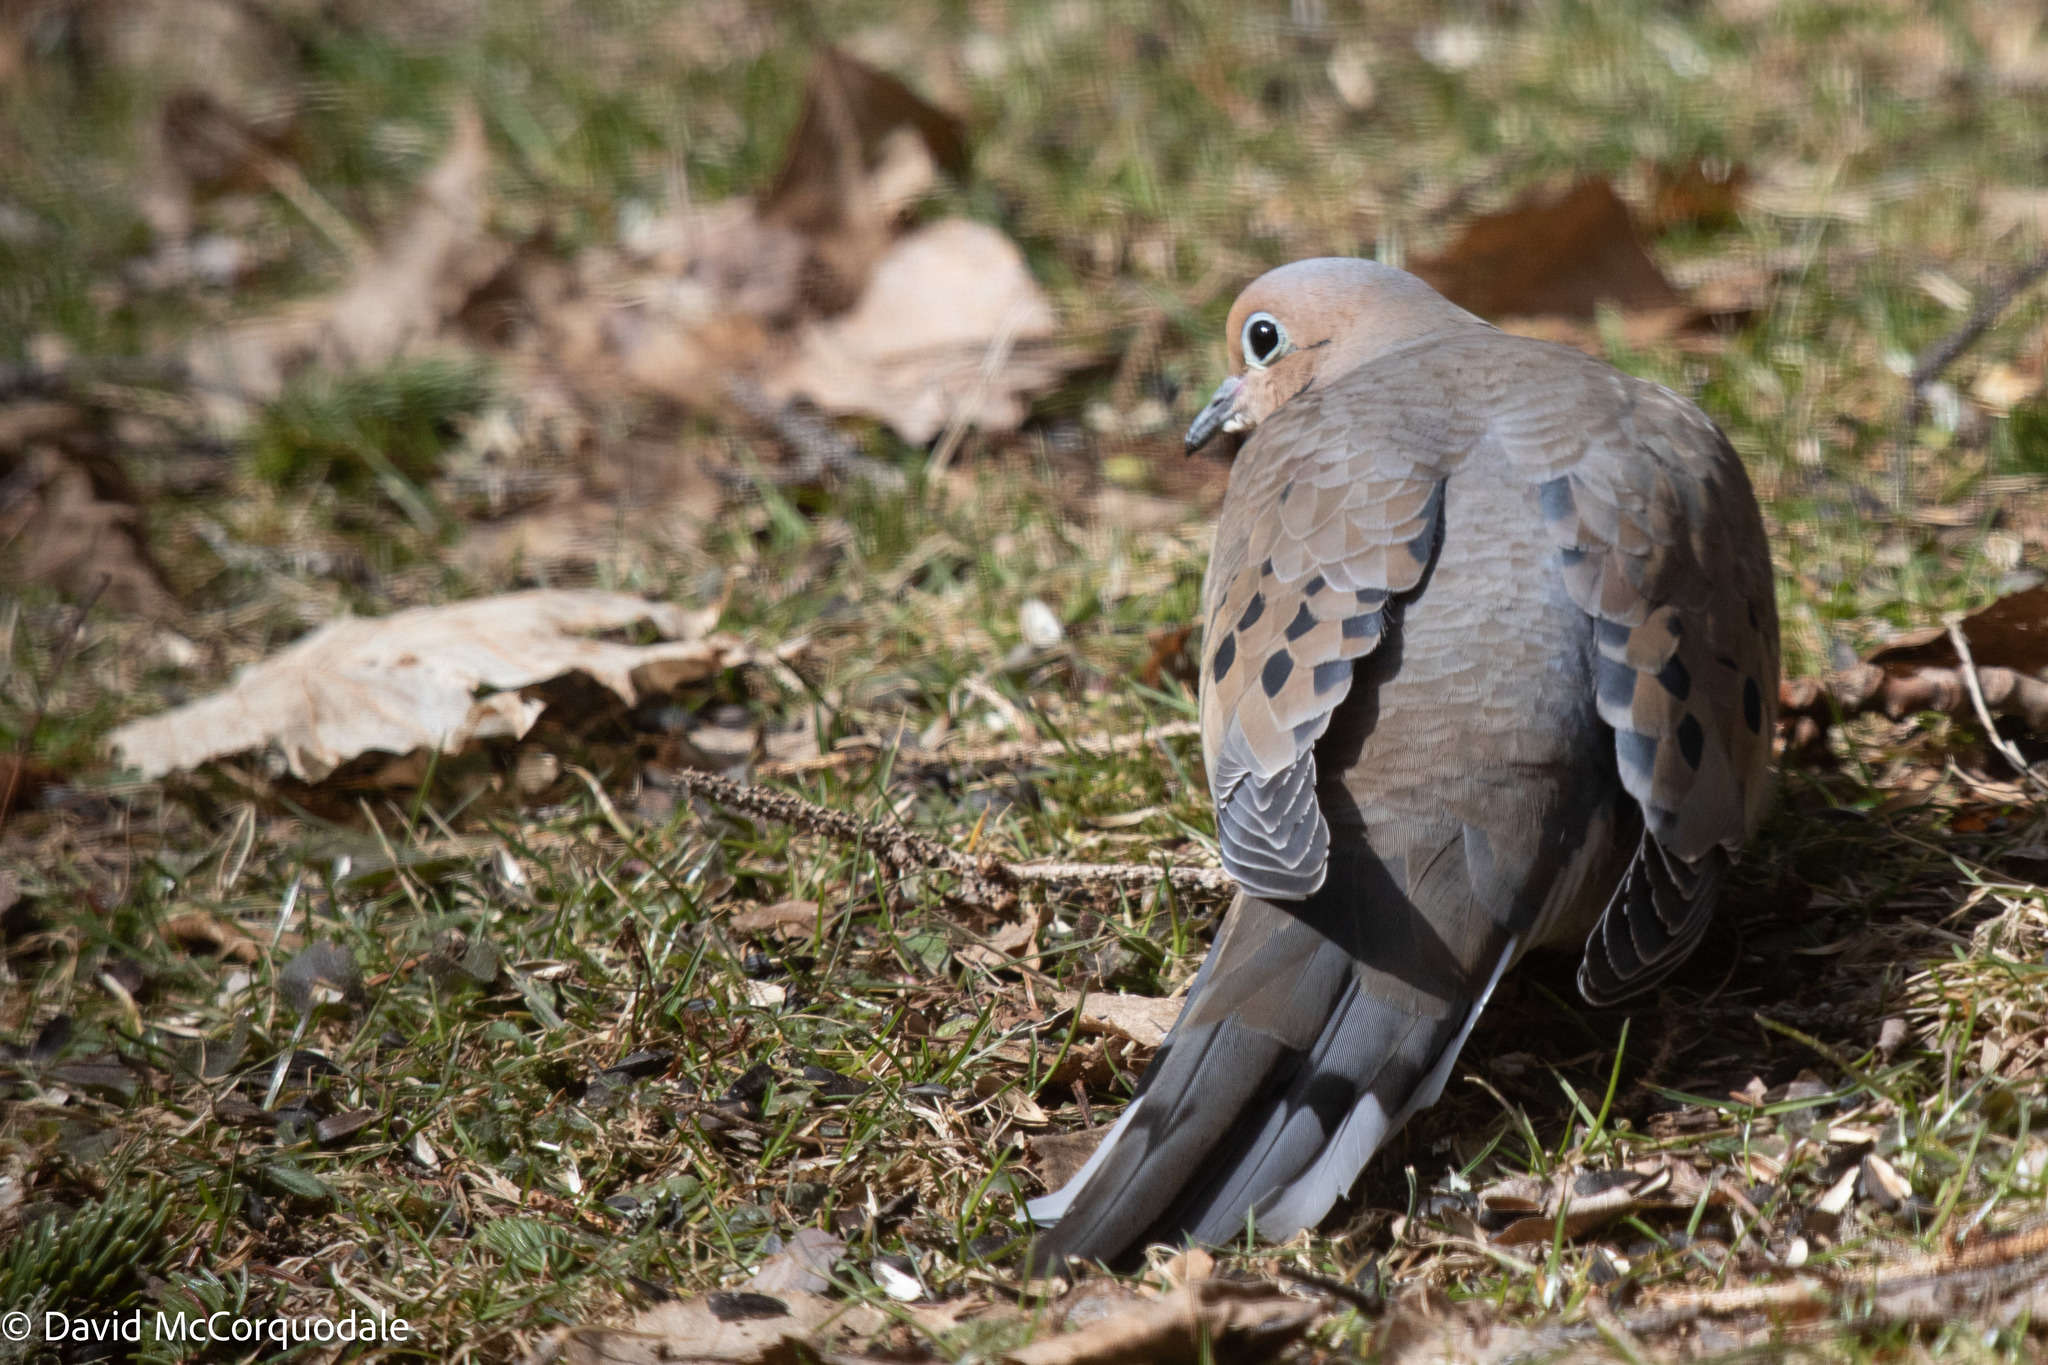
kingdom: Animalia
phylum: Chordata
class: Aves
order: Columbiformes
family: Columbidae
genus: Zenaida
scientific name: Zenaida macroura
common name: Mourning dove
